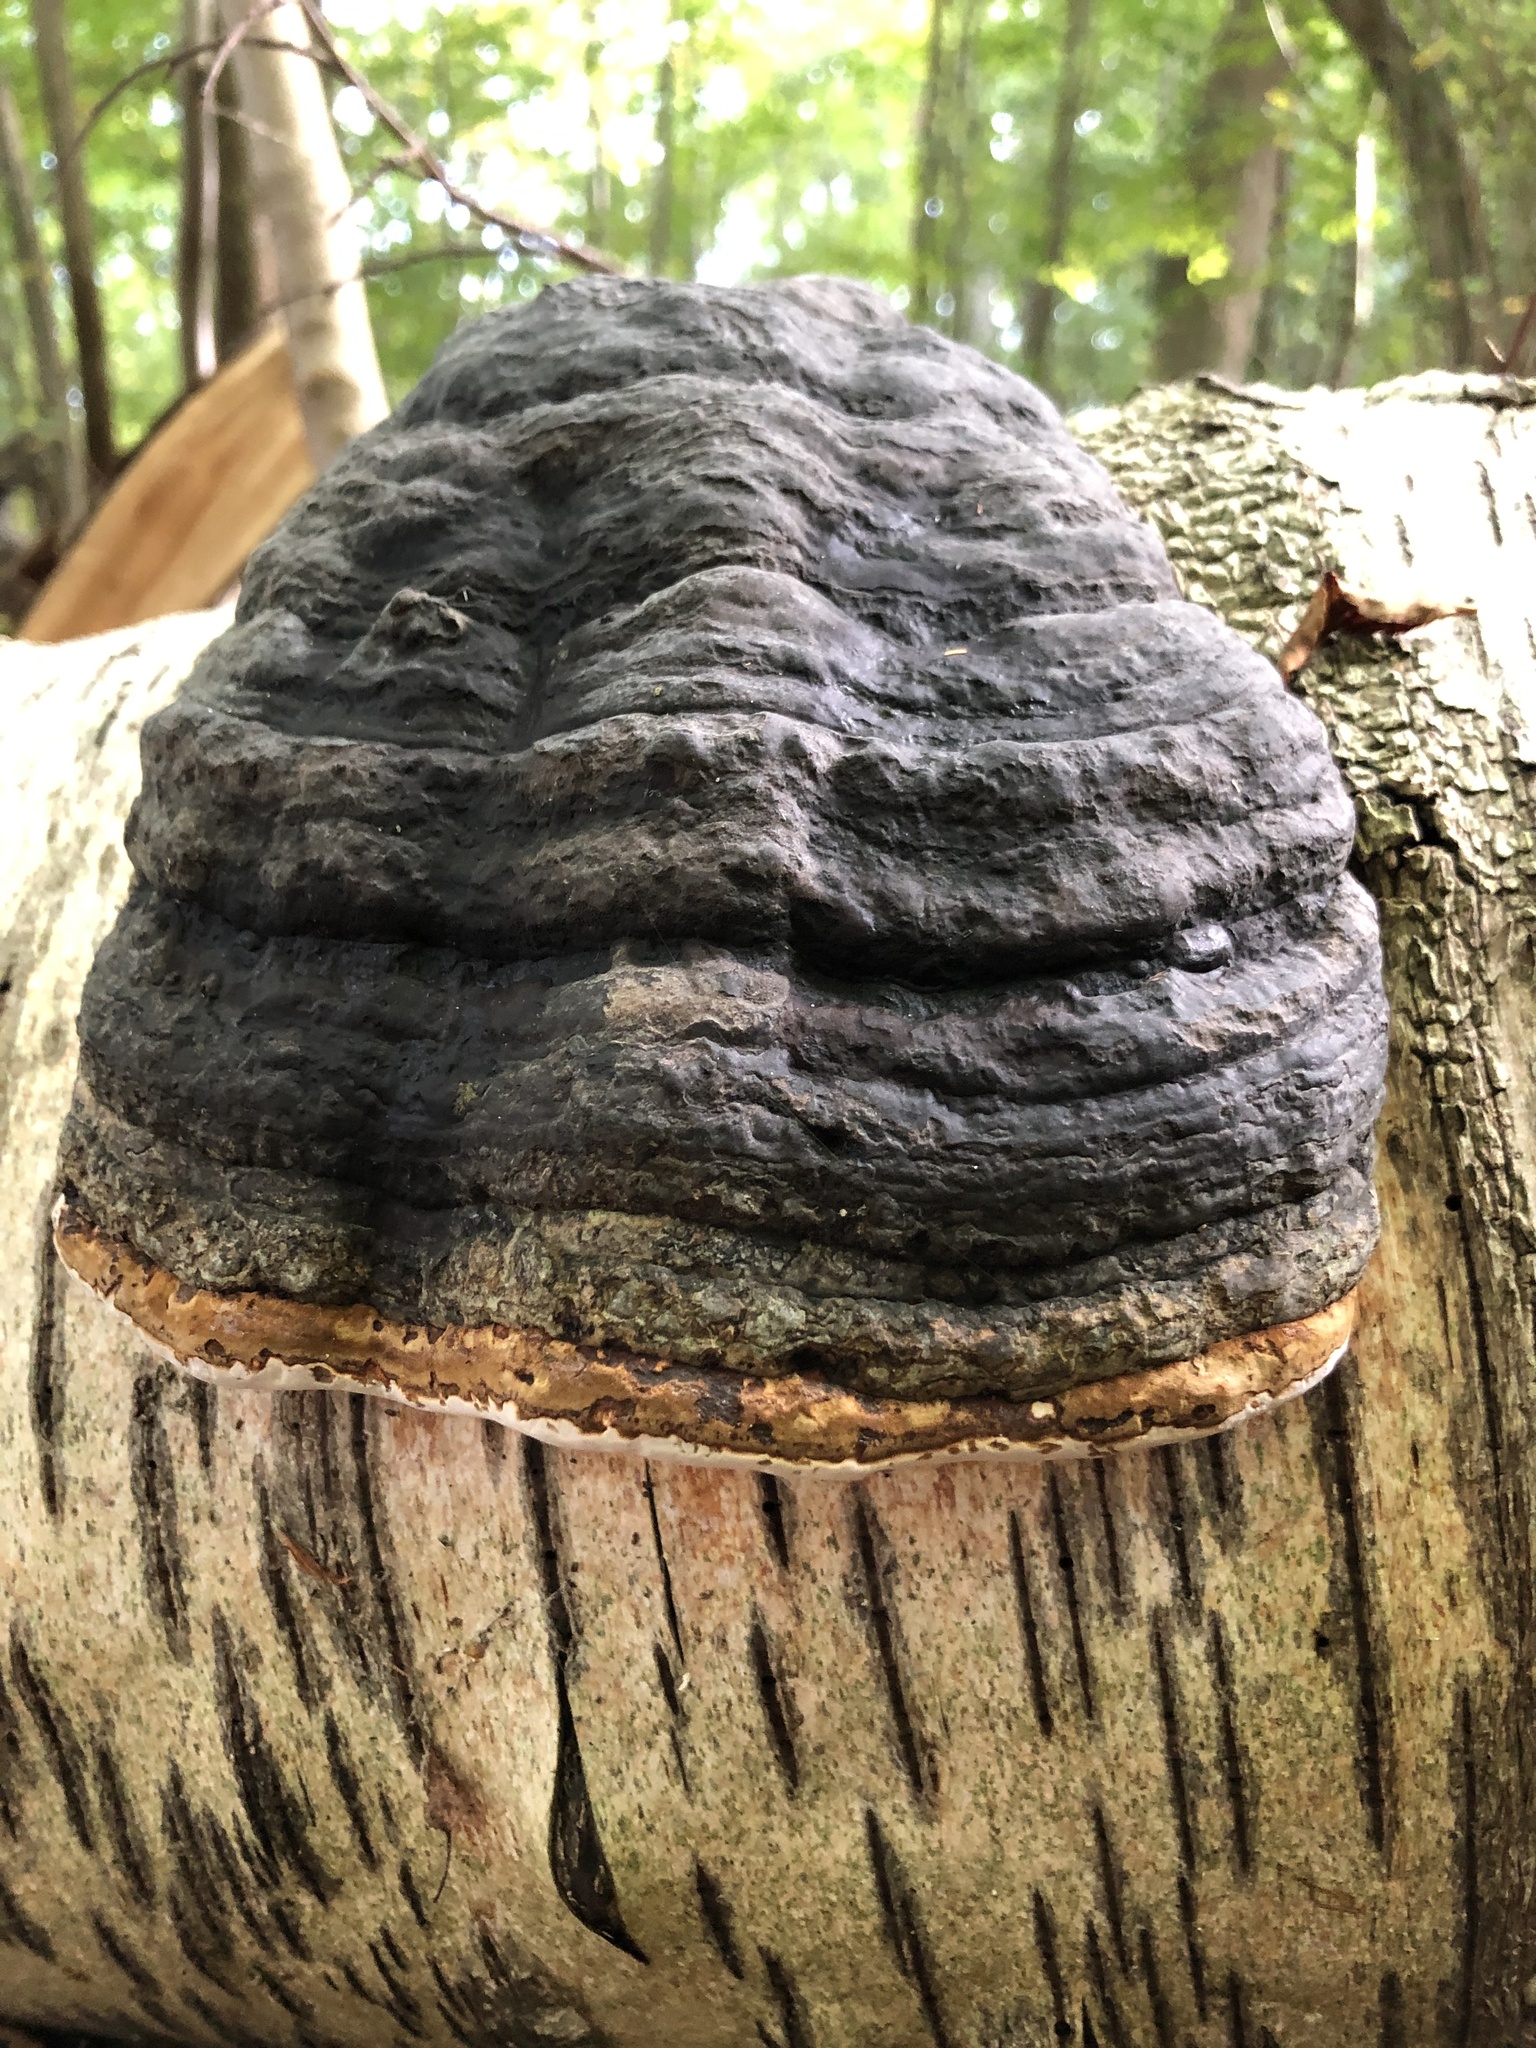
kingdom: Fungi
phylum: Basidiomycota
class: Agaricomycetes
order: Polyporales
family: Polyporaceae
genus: Fomes
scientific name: Fomes fomentarius
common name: Hoof fungus
